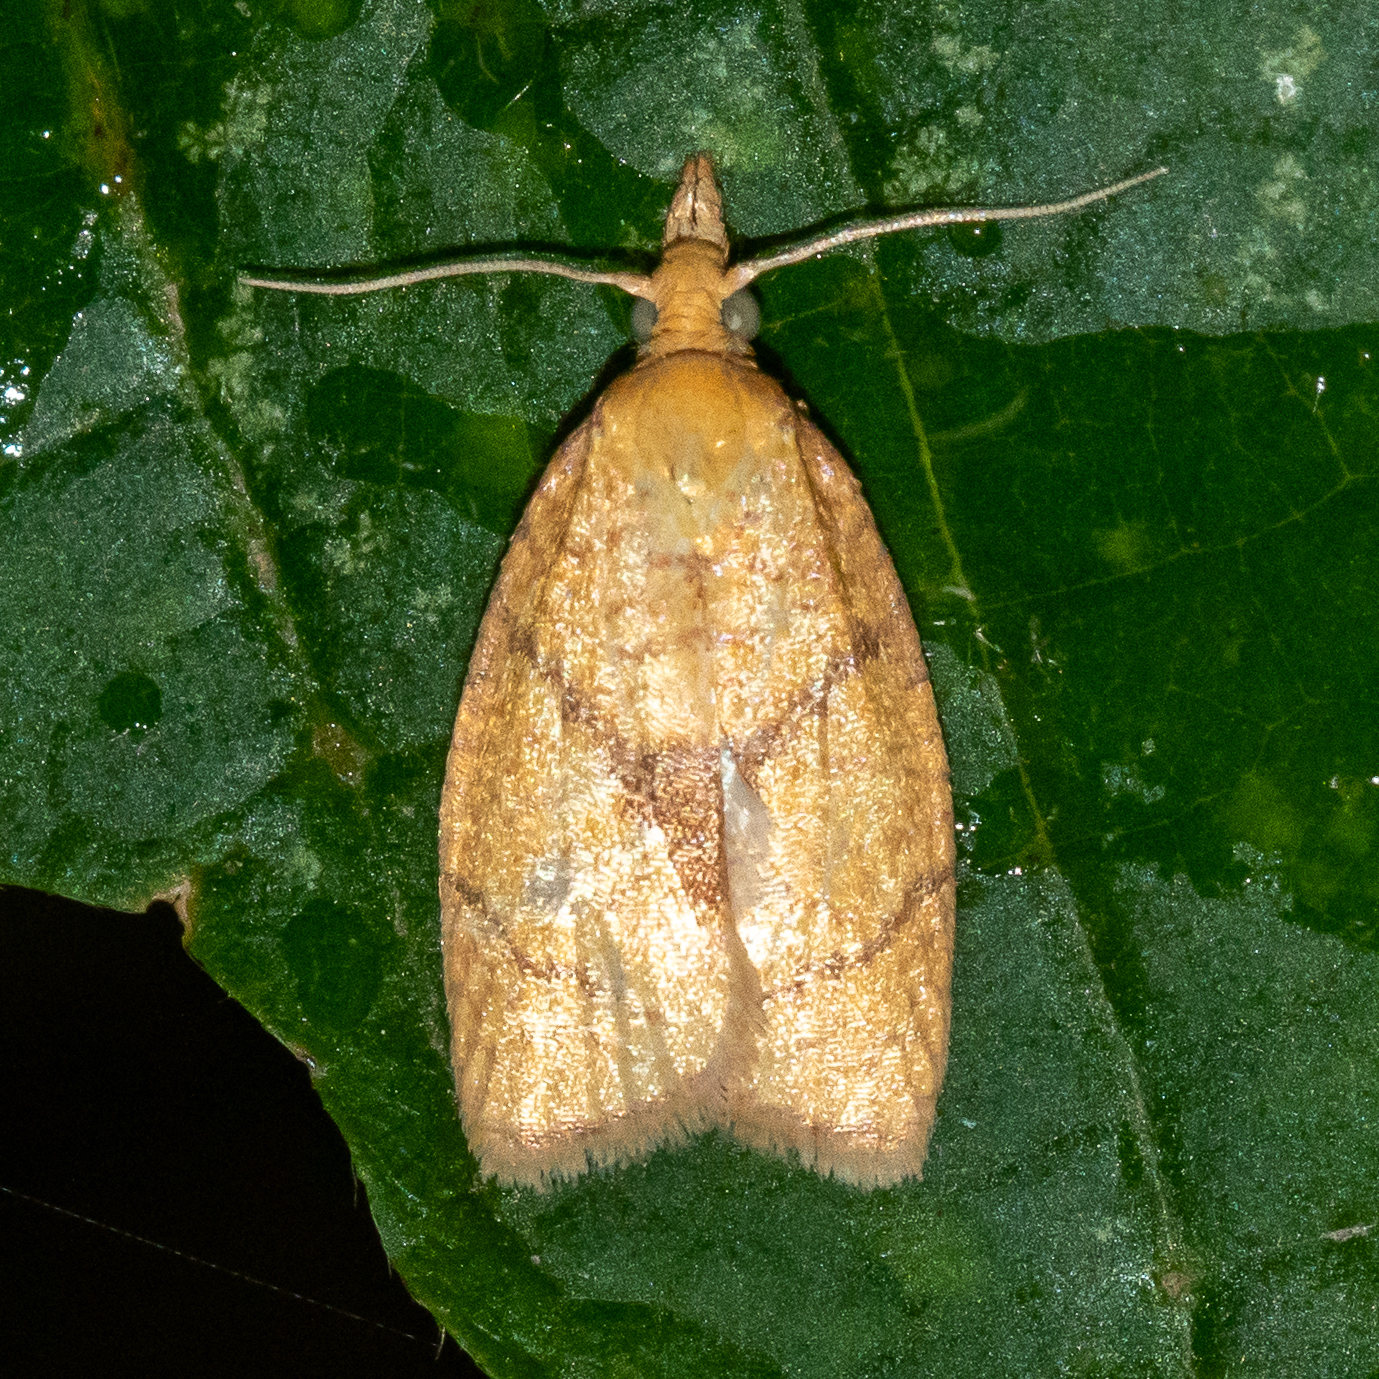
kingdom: Animalia
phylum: Arthropoda
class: Insecta
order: Lepidoptera
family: Tortricidae
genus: Cenopis
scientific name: Cenopis reticulatana
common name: Reticulated fruitworm moth
